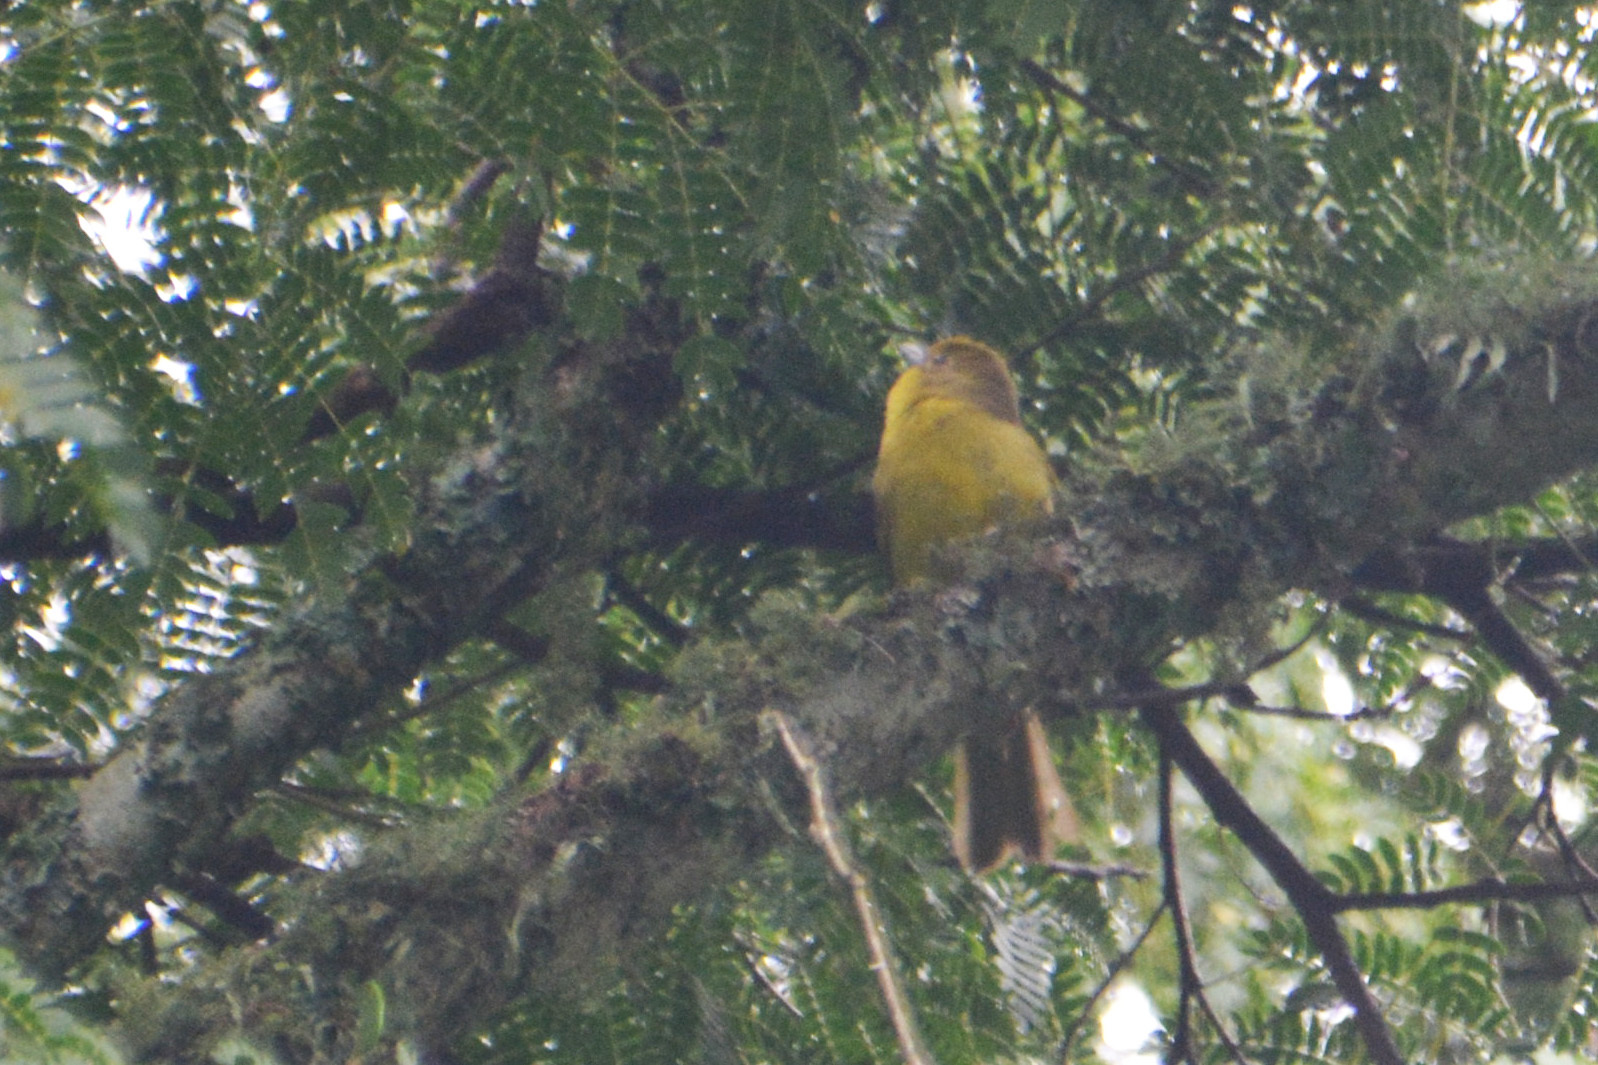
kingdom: Animalia
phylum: Chordata
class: Aves
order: Passeriformes
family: Cardinalidae
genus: Piranga
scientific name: Piranga flava
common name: Red tanager
